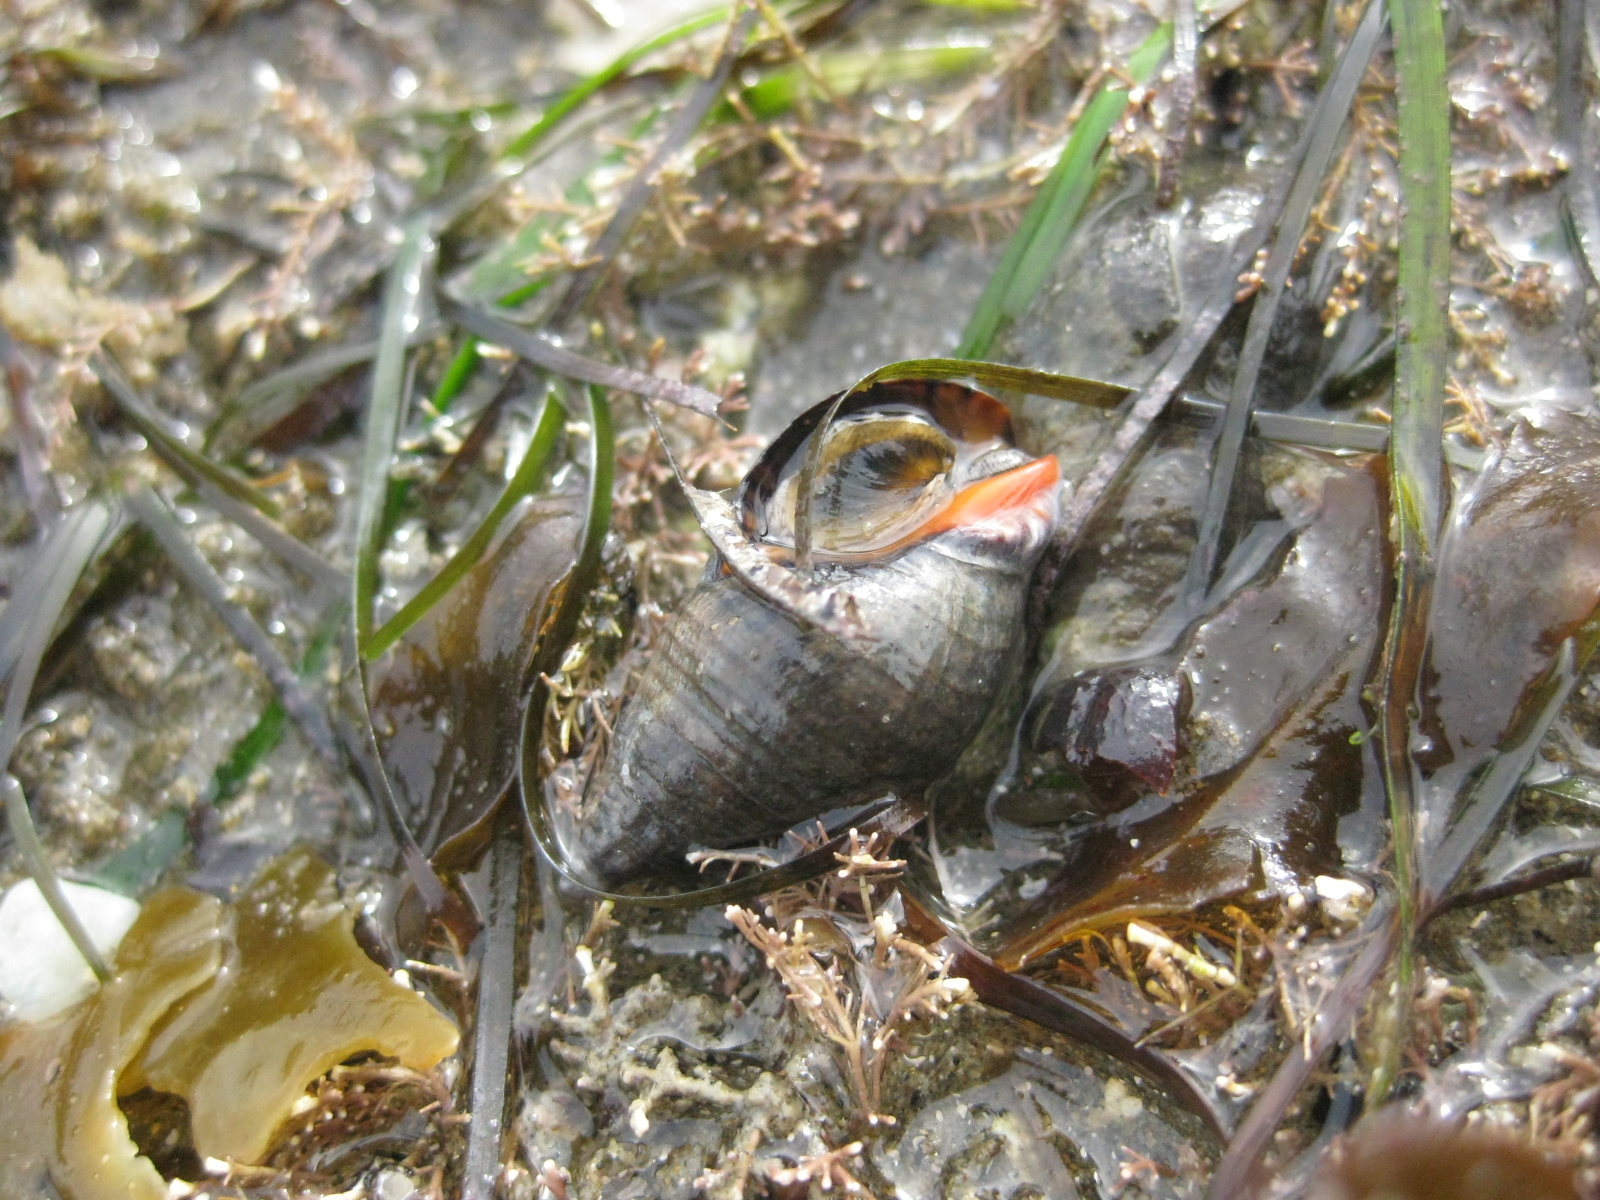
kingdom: Animalia
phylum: Mollusca
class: Gastropoda
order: Neogastropoda
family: Cominellidae
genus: Cominella
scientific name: Cominella virgata
